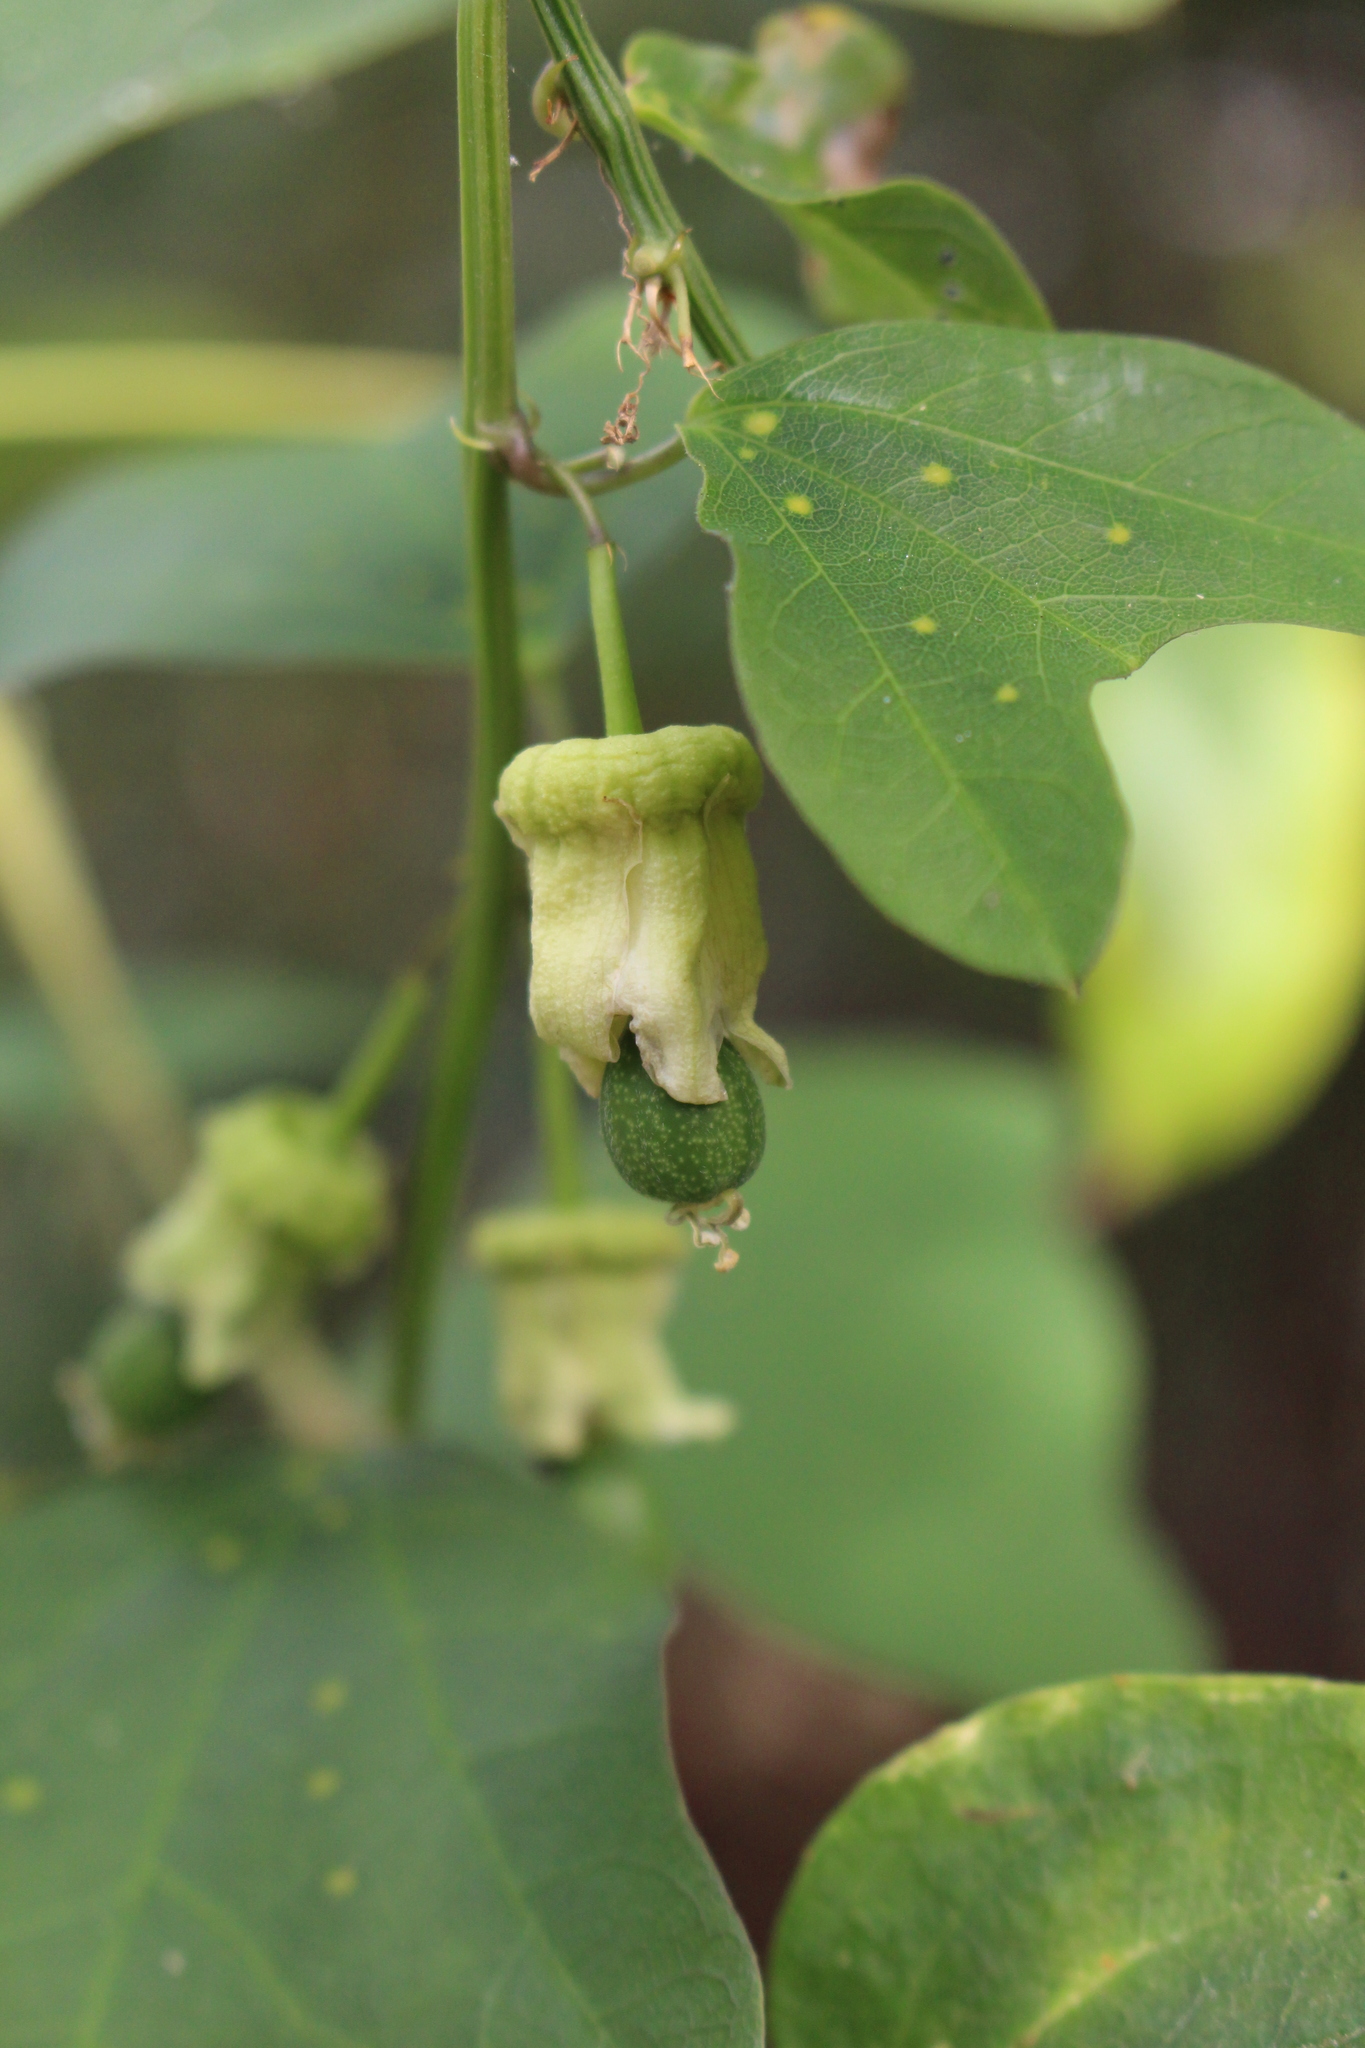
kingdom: Plantae
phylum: Tracheophyta
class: Magnoliopsida
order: Malpighiales
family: Passifloraceae
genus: Passiflora
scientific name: Passiflora biflora
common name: Twoflower passionflower
